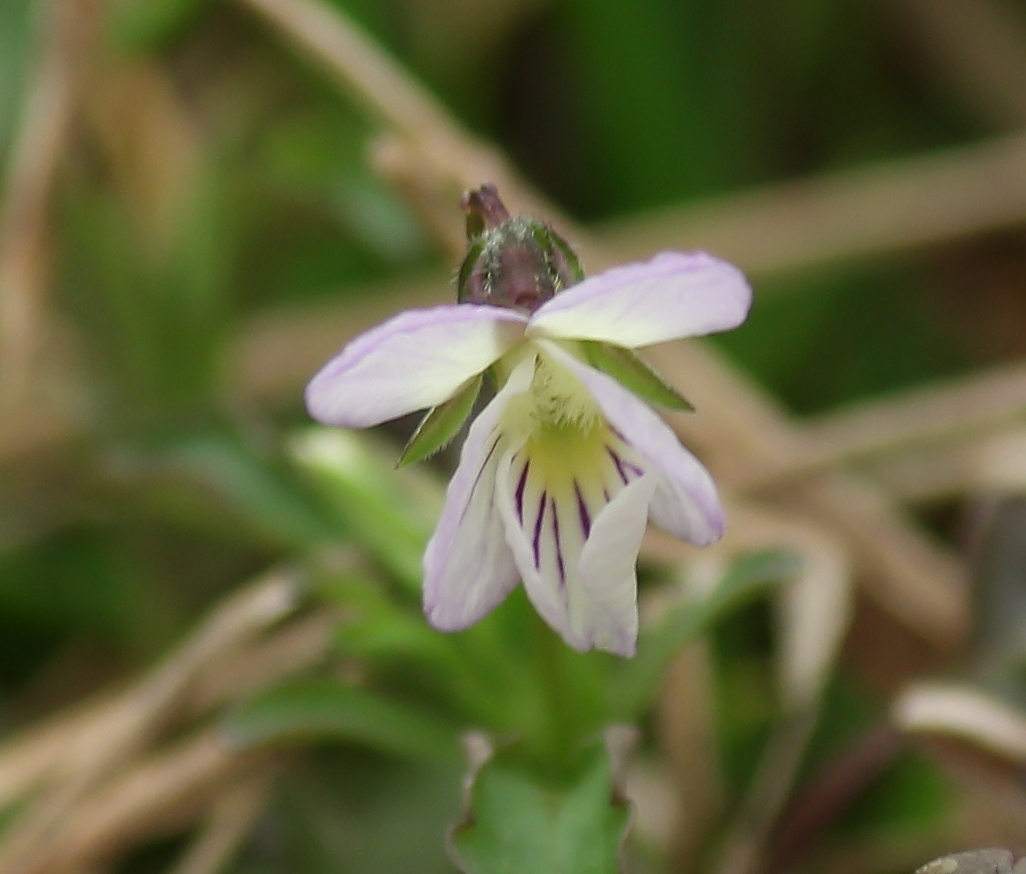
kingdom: Plantae
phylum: Tracheophyta
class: Magnoliopsida
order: Malpighiales
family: Violaceae
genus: Viola
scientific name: Viola rafinesquei
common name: American field pansy
